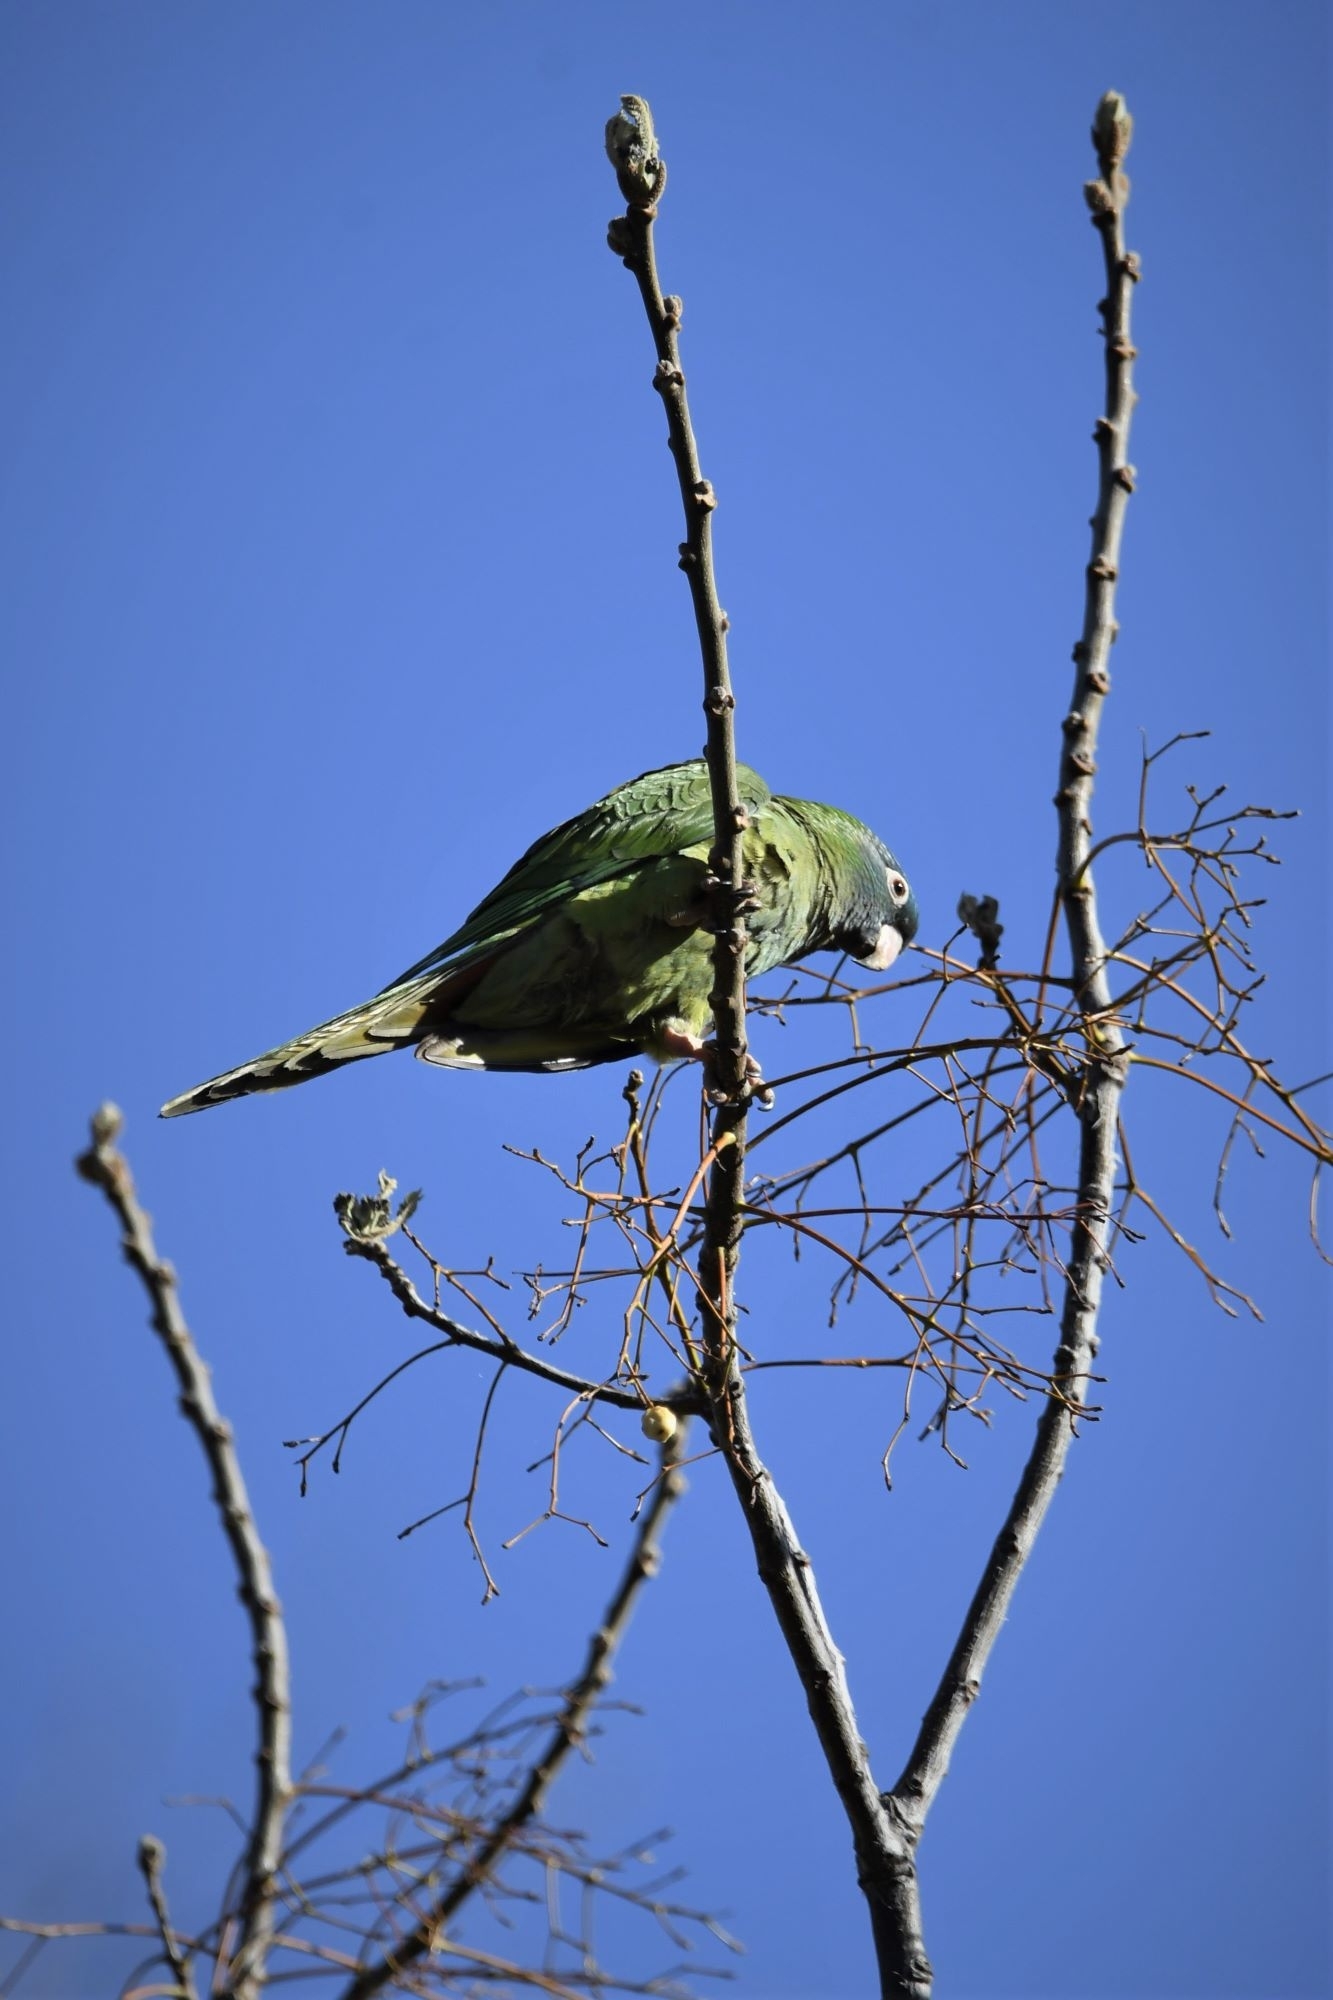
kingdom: Animalia
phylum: Chordata
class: Aves
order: Psittaciformes
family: Psittacidae
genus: Aratinga
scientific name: Aratinga acuticaudata
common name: Blue-crowned parakeet
